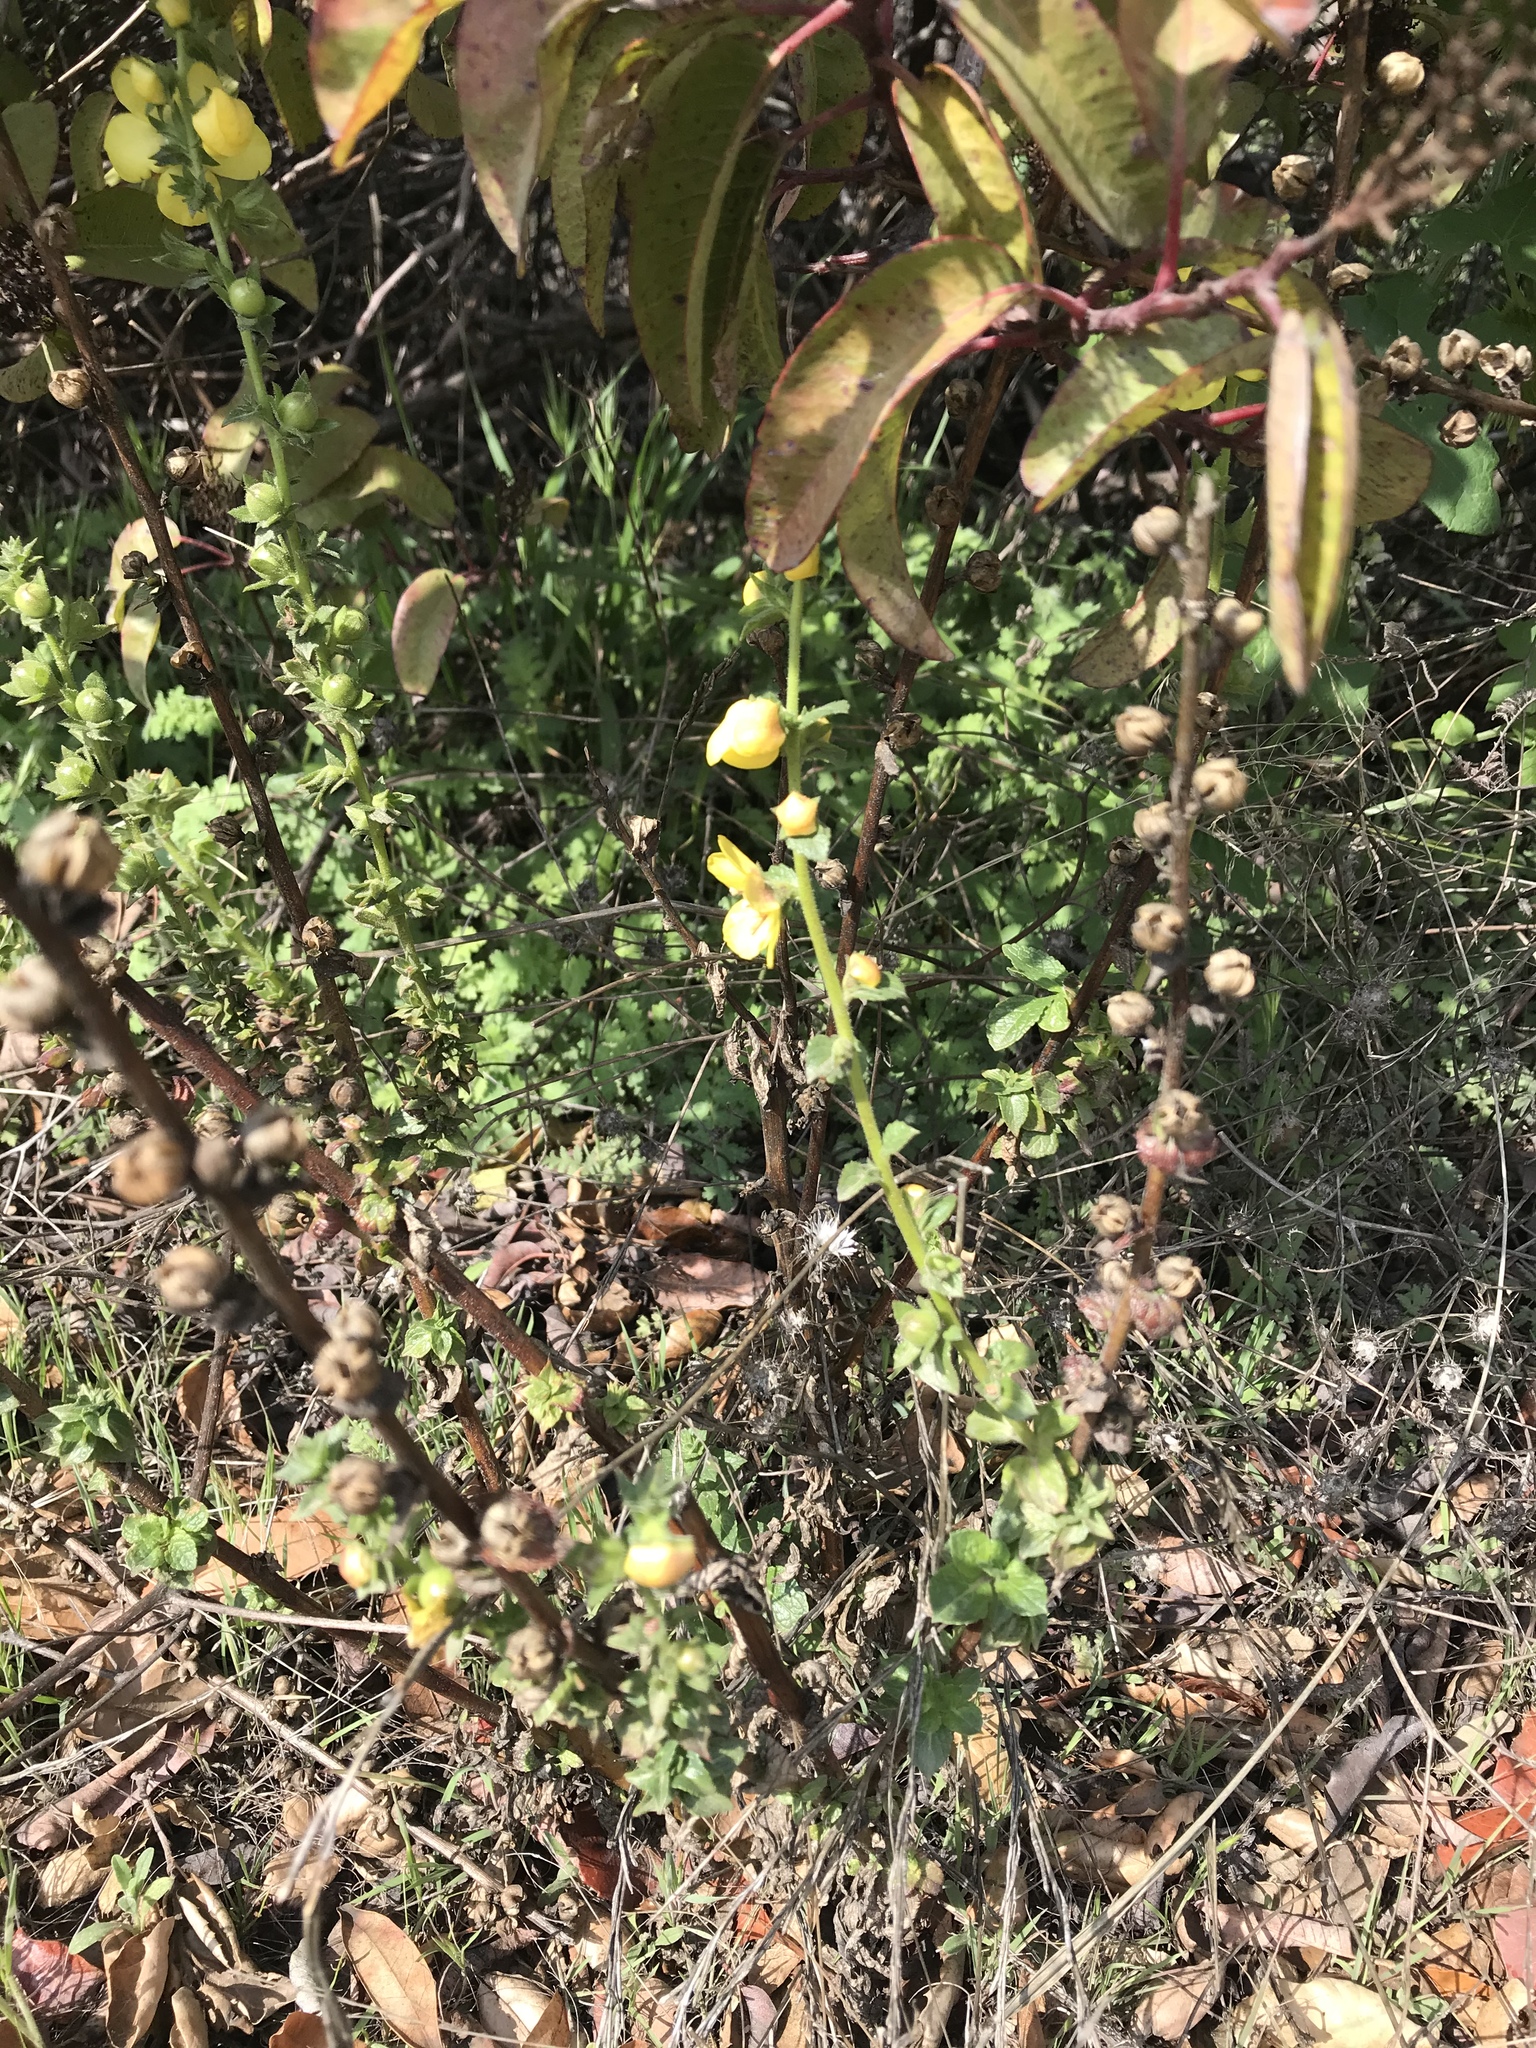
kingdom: Plantae
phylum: Tracheophyta
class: Magnoliopsida
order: Lamiales
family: Scrophulariaceae
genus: Verbascum
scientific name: Verbascum virgatum
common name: Twiggy mullein
